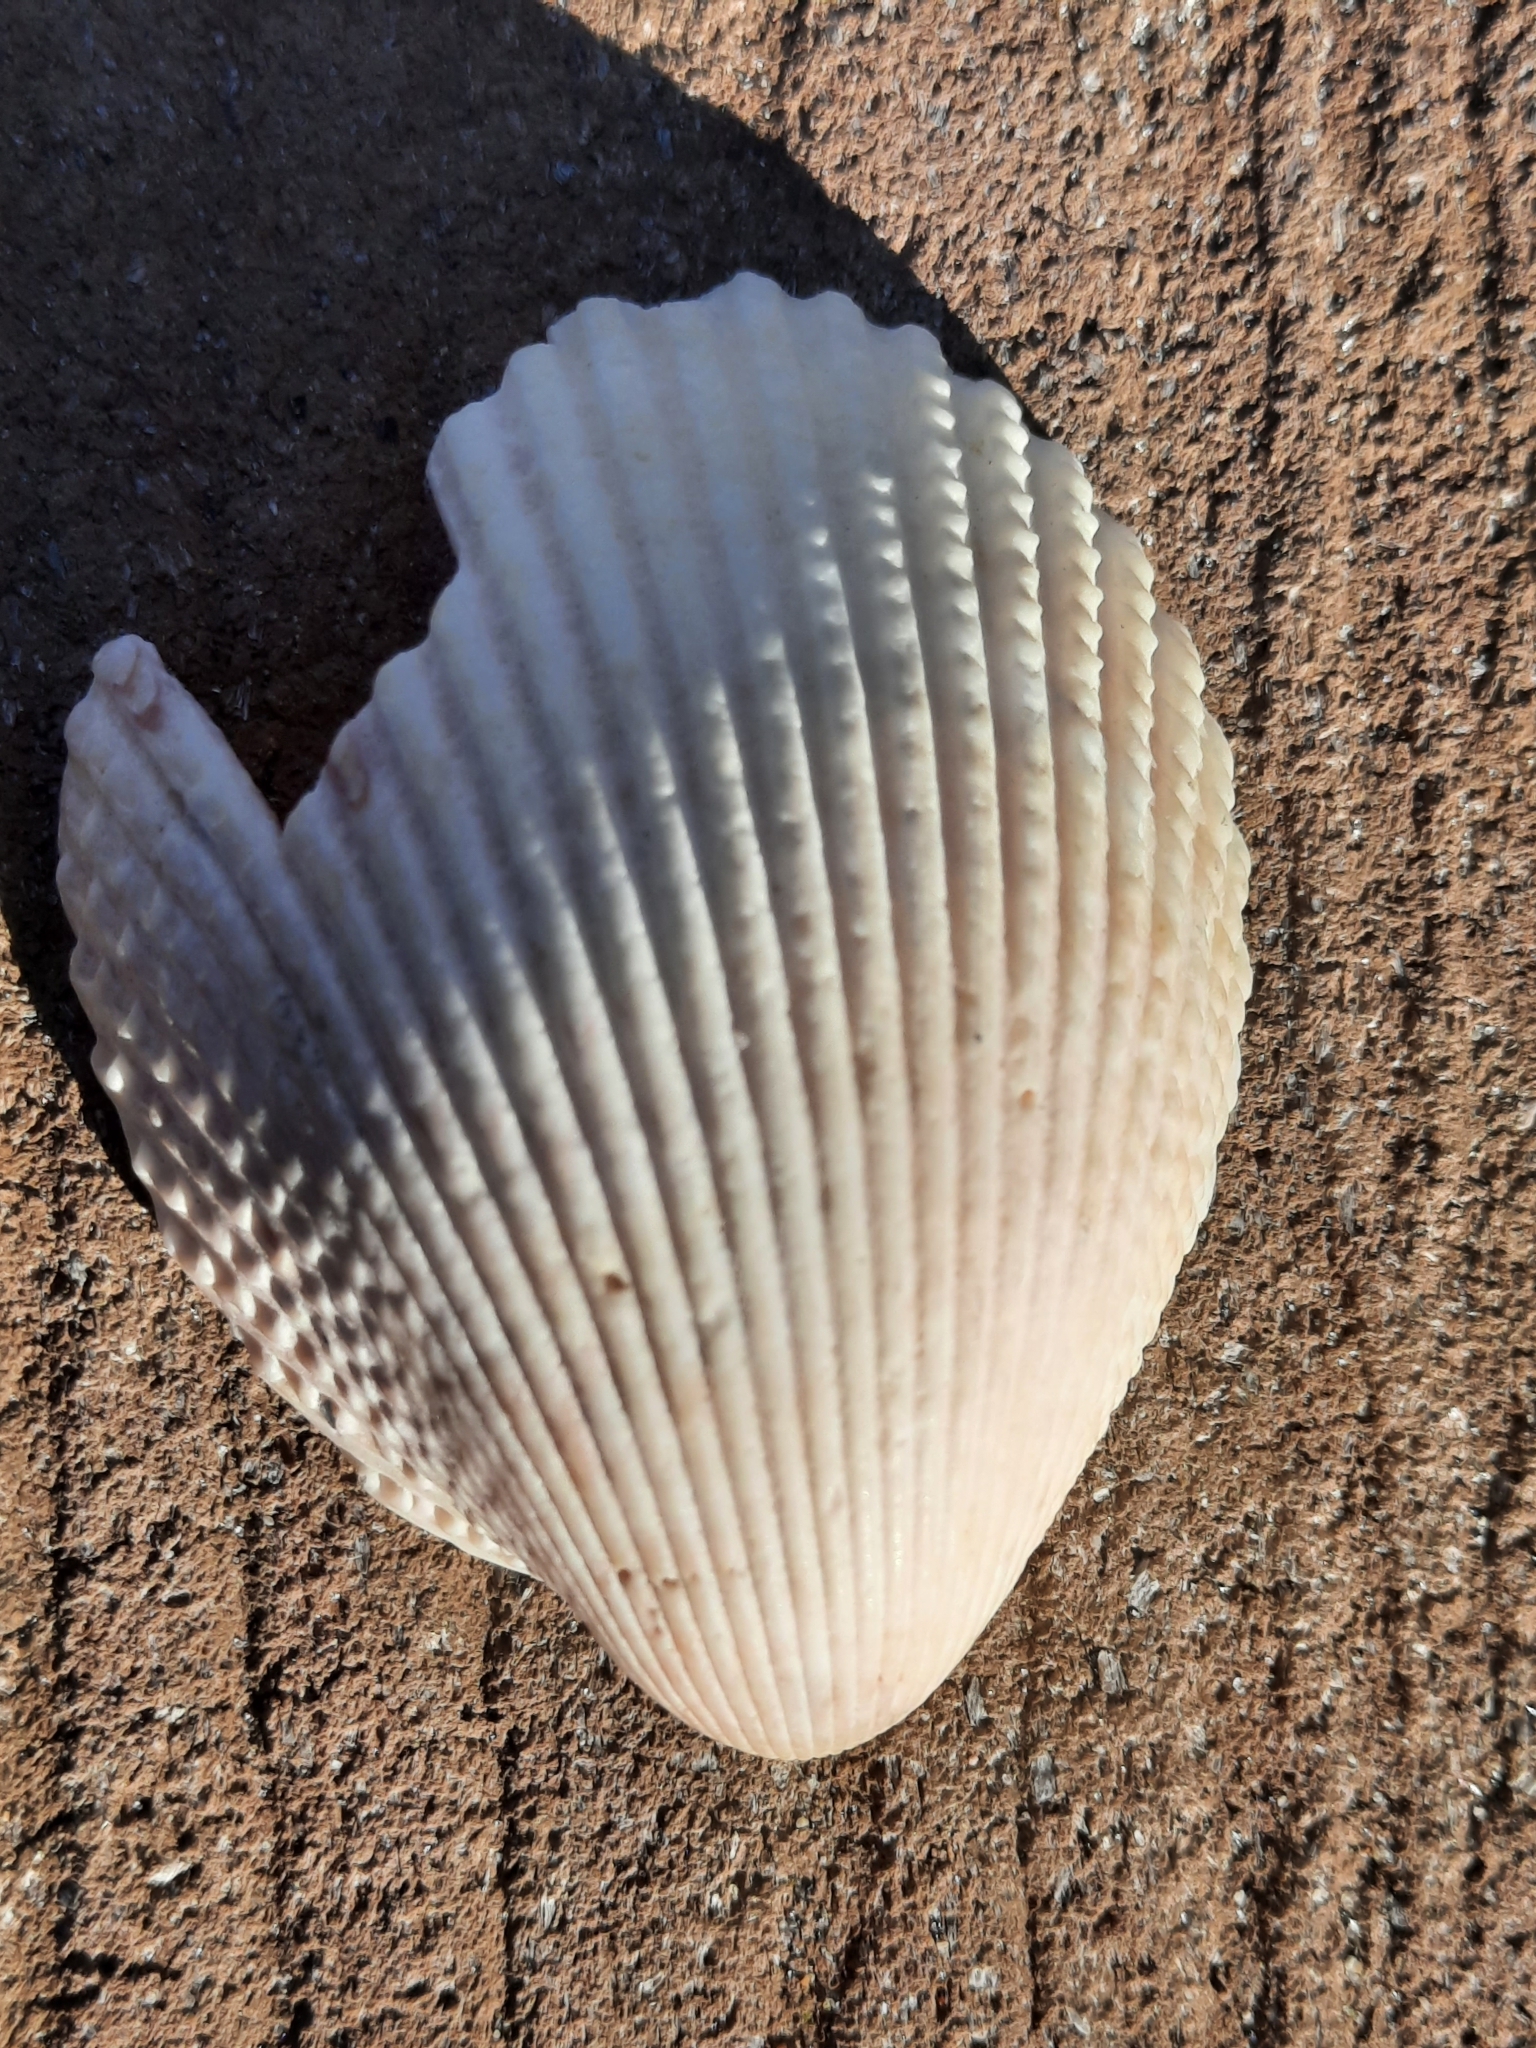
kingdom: Animalia
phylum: Mollusca
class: Bivalvia
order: Cardiida
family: Cardiidae
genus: Trachycardium
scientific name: Trachycardium egmontianum
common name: Florida pricklycockle
